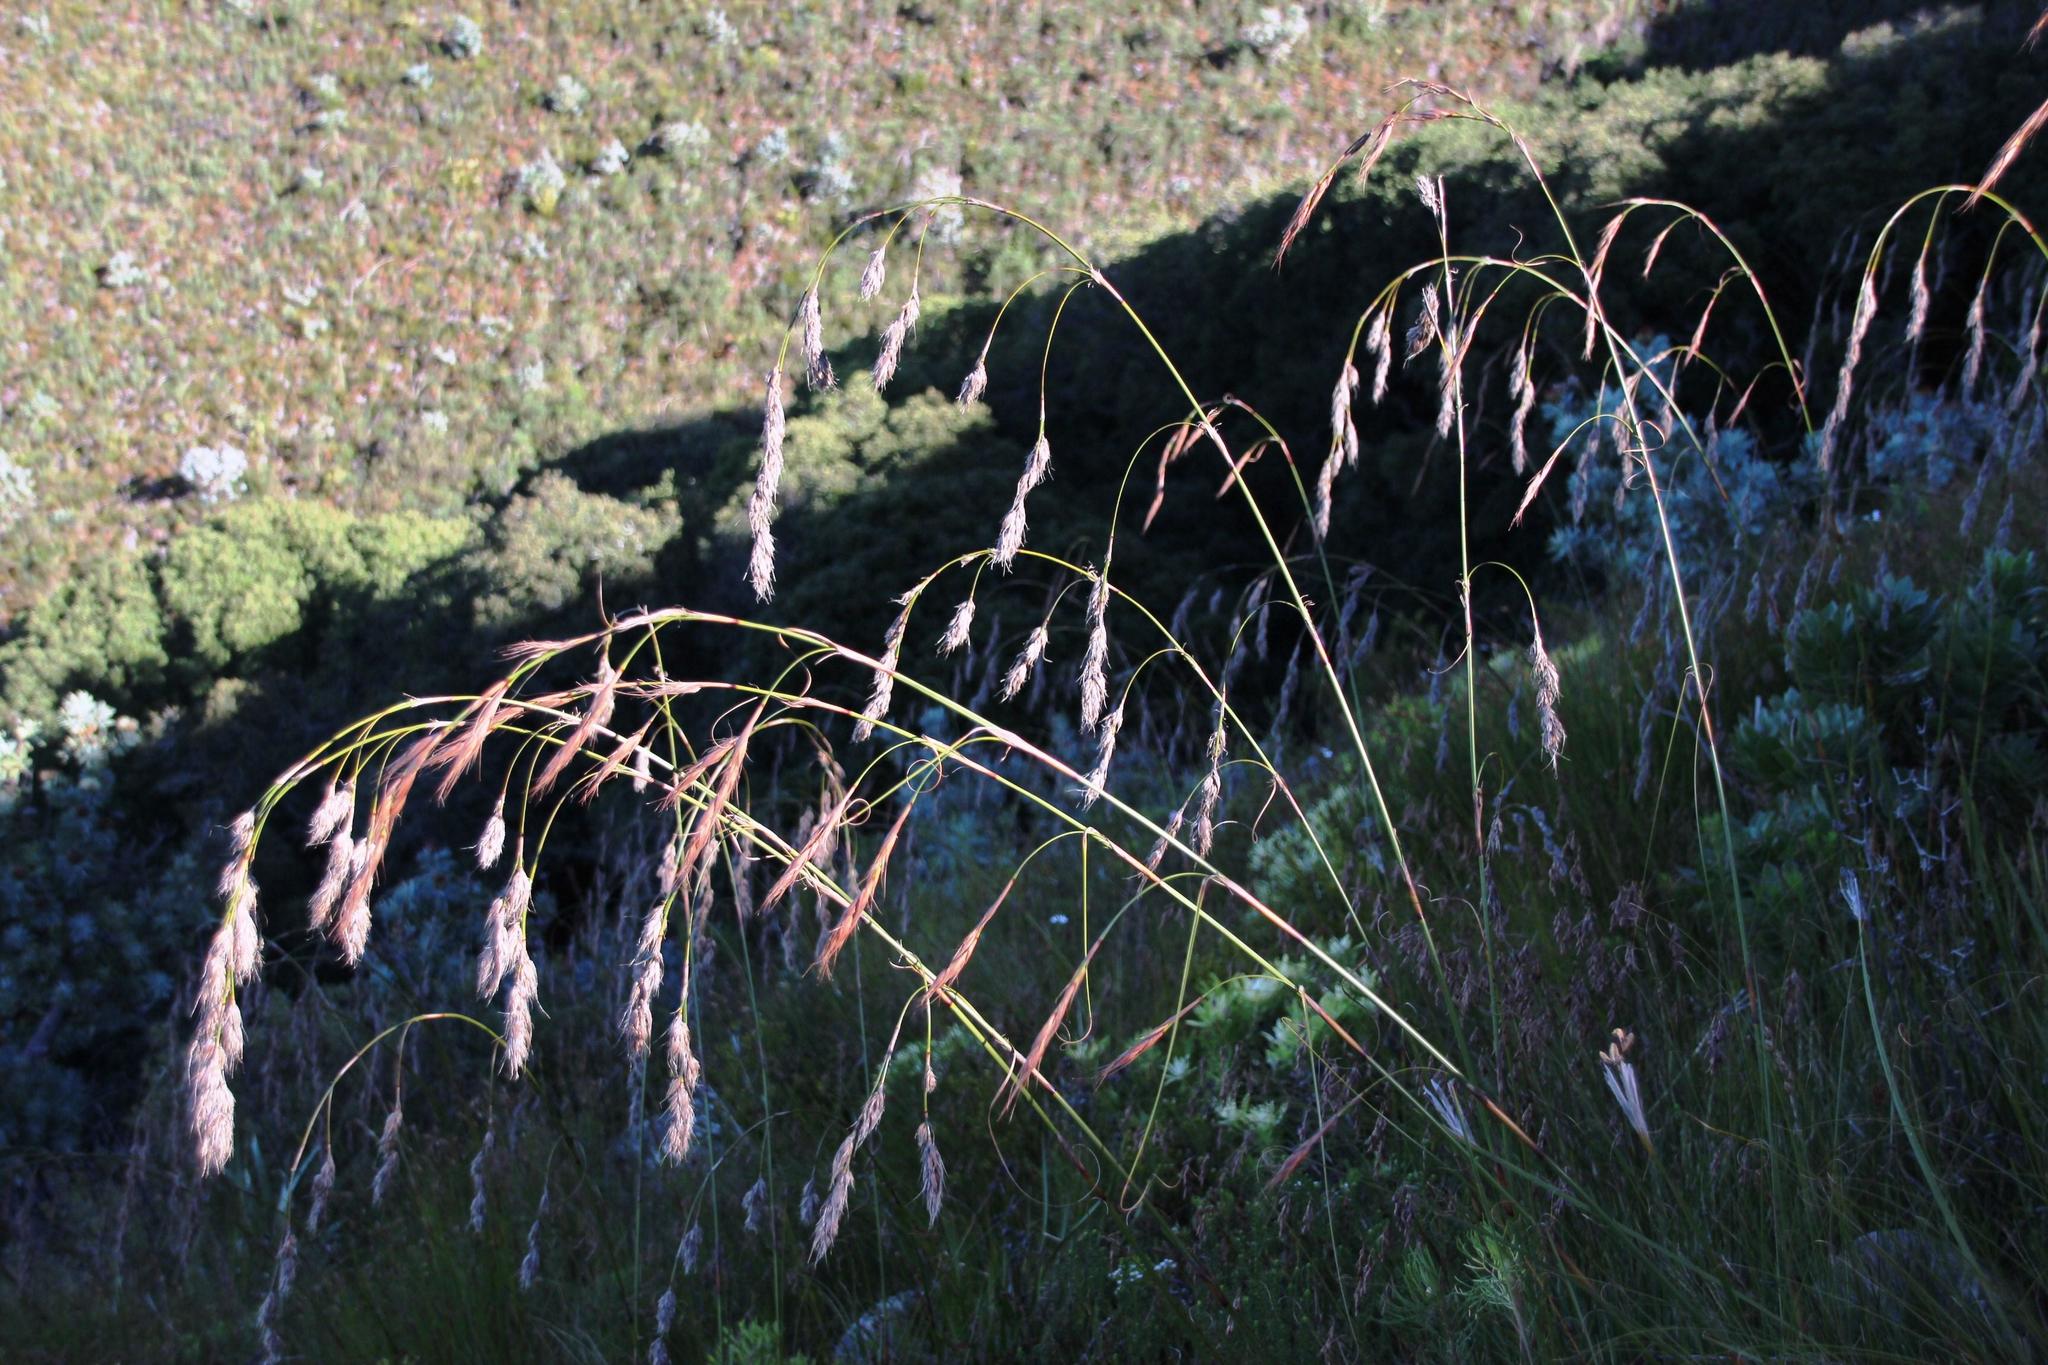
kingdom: Plantae
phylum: Tracheophyta
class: Liliopsida
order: Poales
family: Cyperaceae
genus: Tetraria
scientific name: Tetraria involucrata
